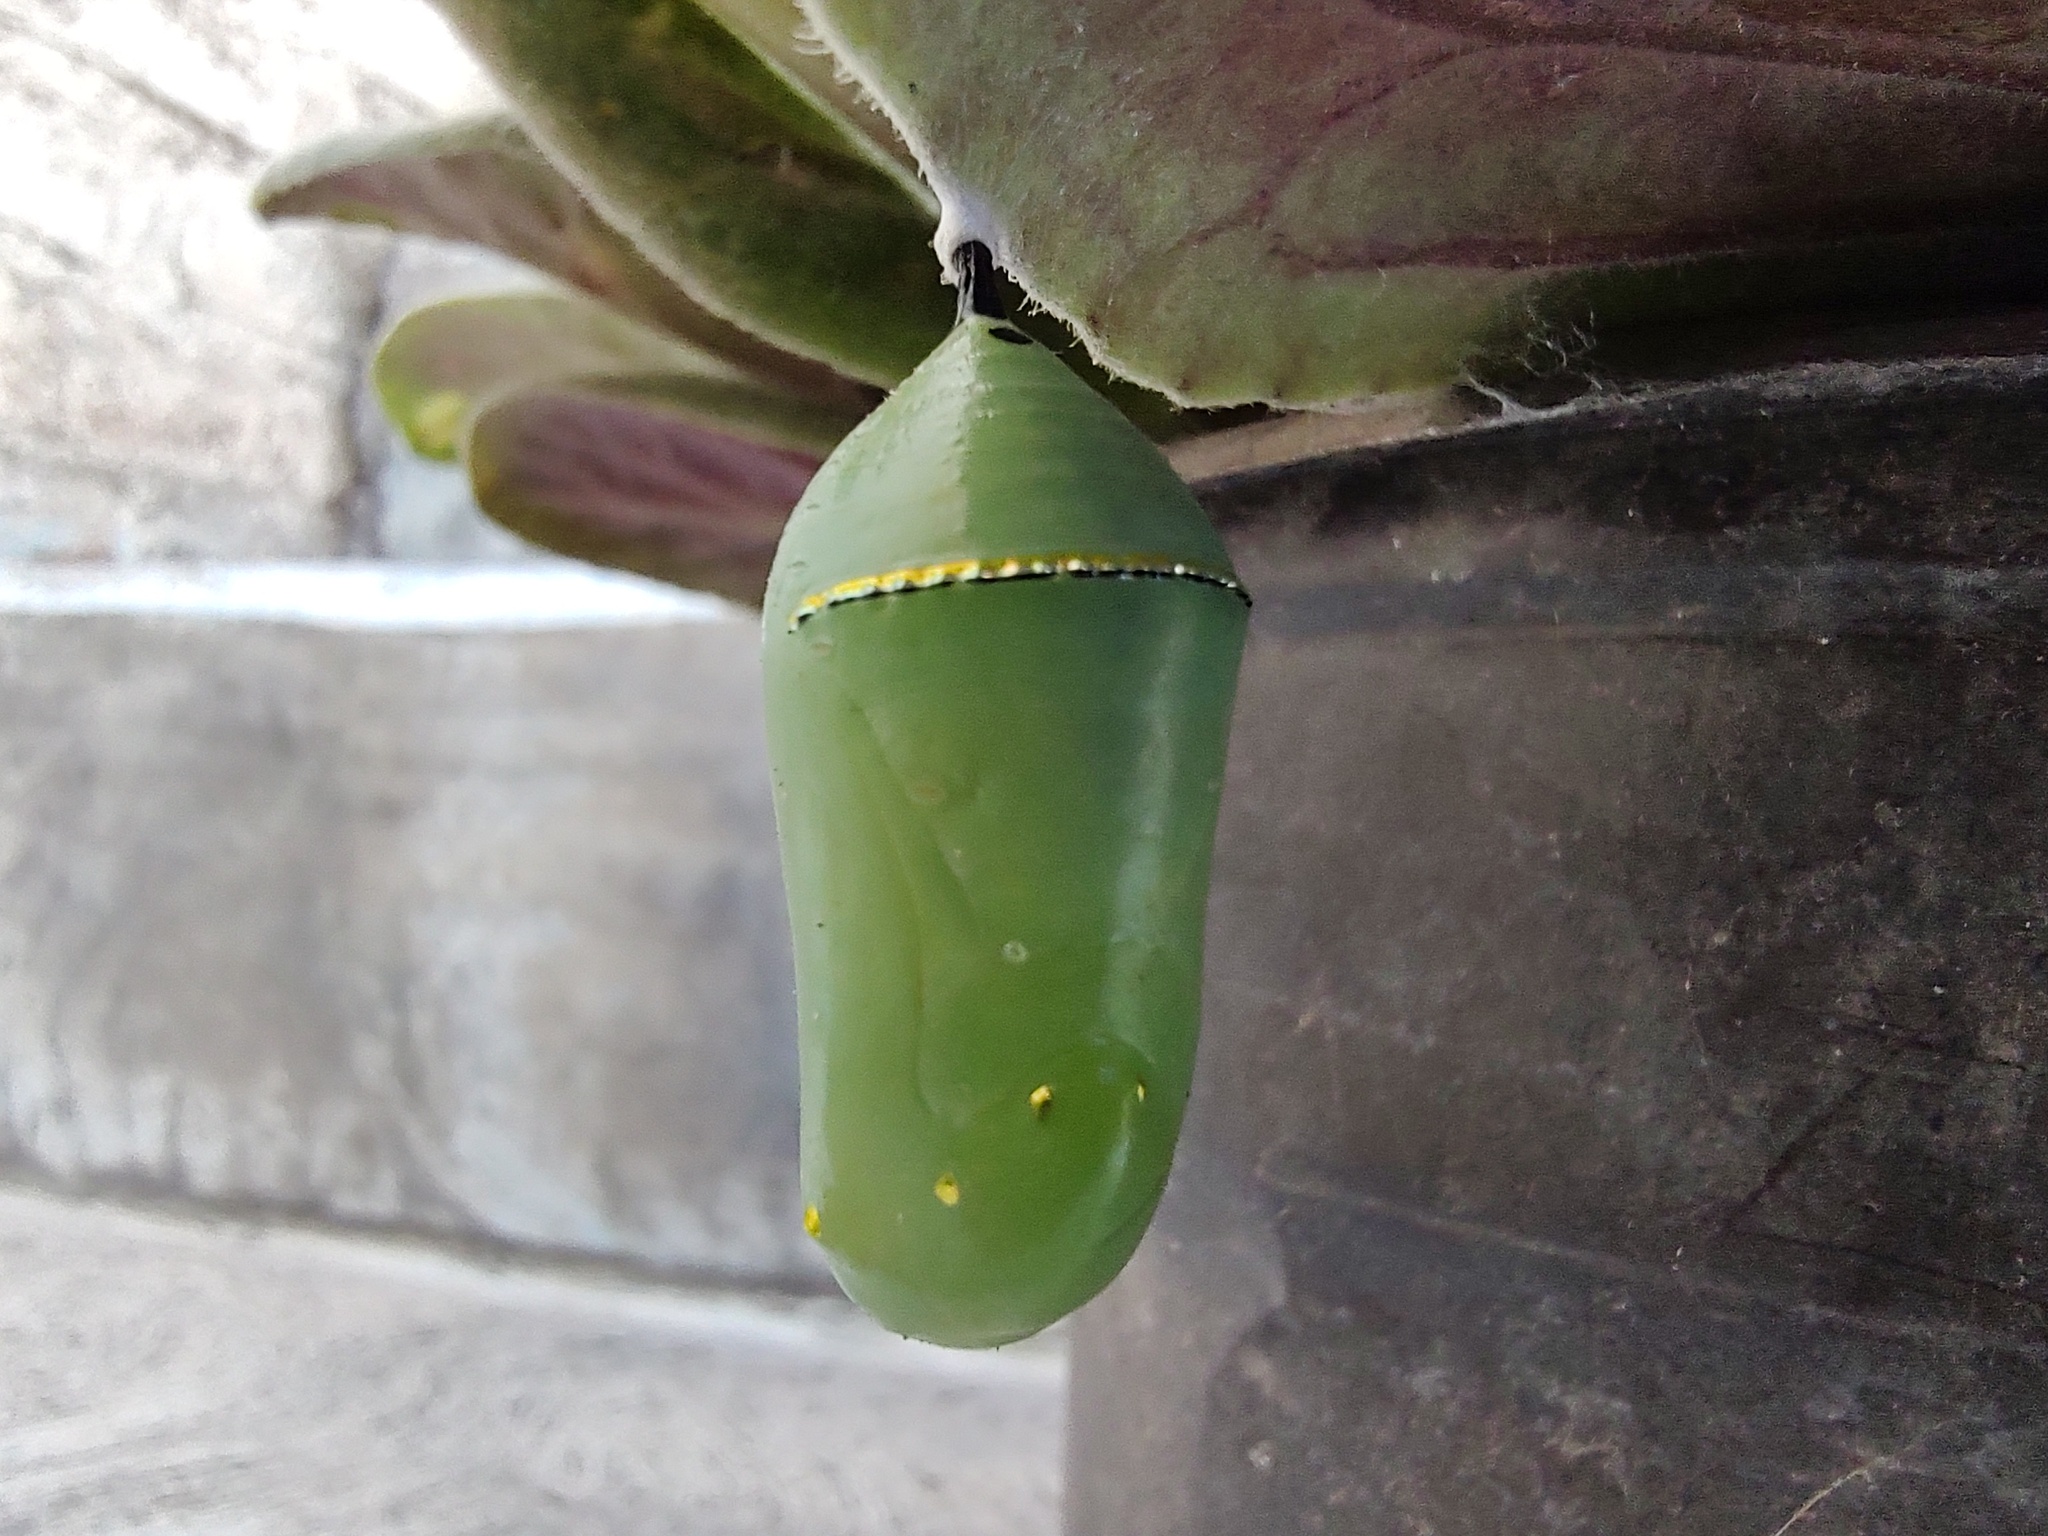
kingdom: Animalia
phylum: Arthropoda
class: Insecta
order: Lepidoptera
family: Nymphalidae
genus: Danaus
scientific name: Danaus plexippus
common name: Monarch
